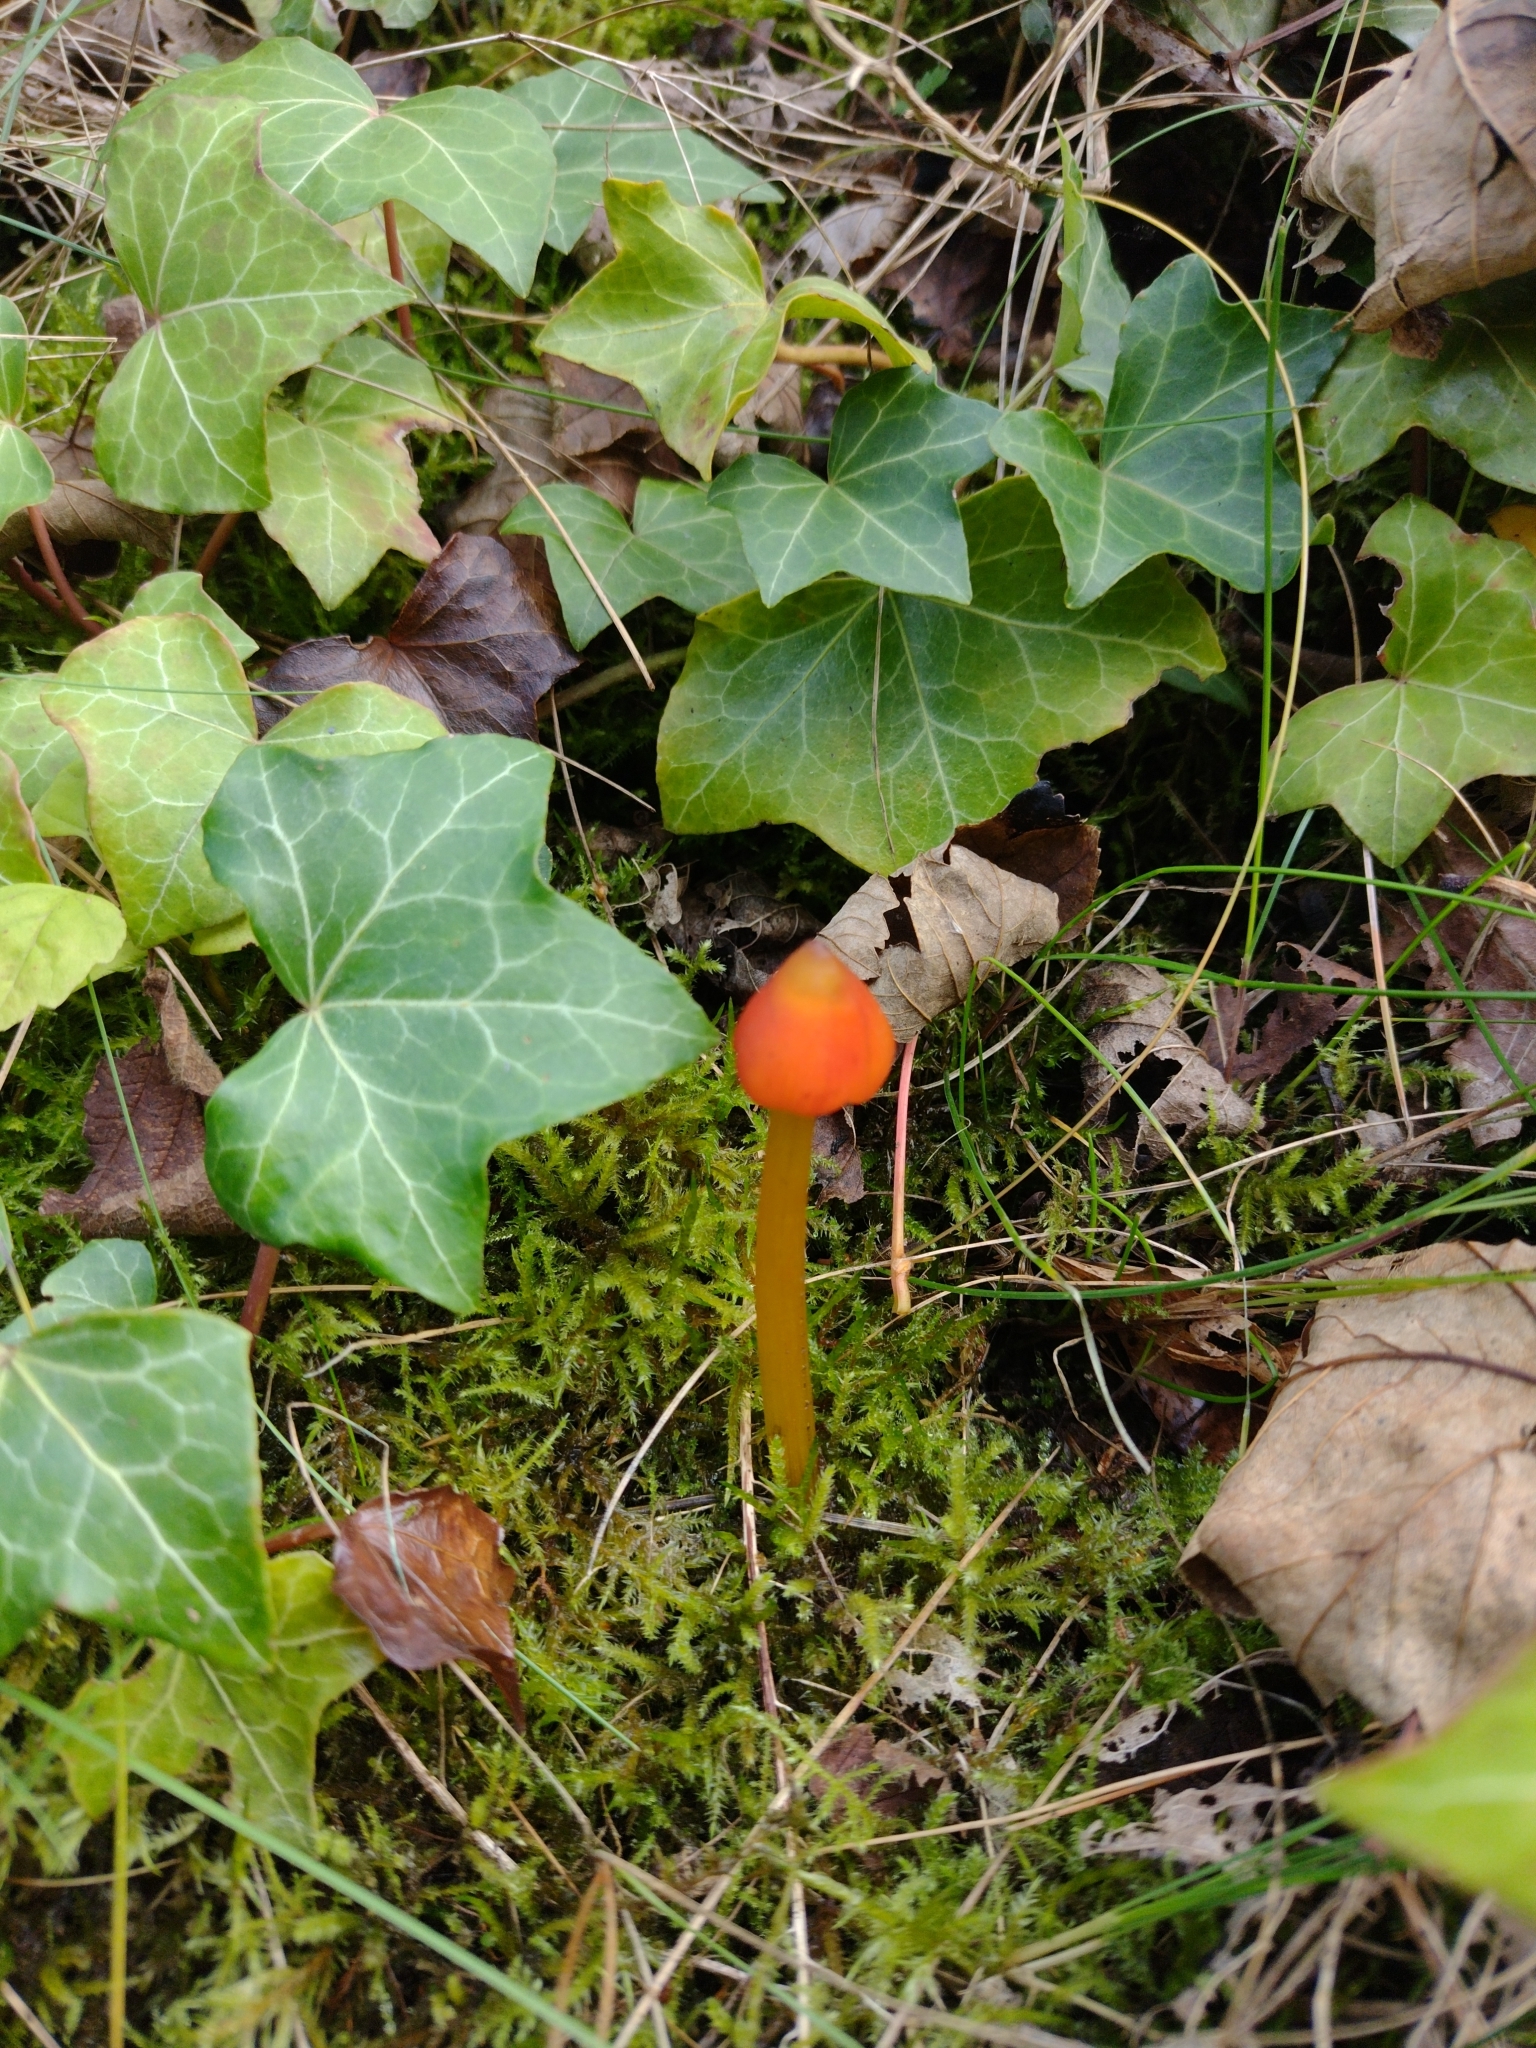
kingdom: Fungi
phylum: Basidiomycota
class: Agaricomycetes
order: Agaricales
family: Hygrophoraceae
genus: Hygrocybe
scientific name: Hygrocybe conica
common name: Blackening wax-cap
